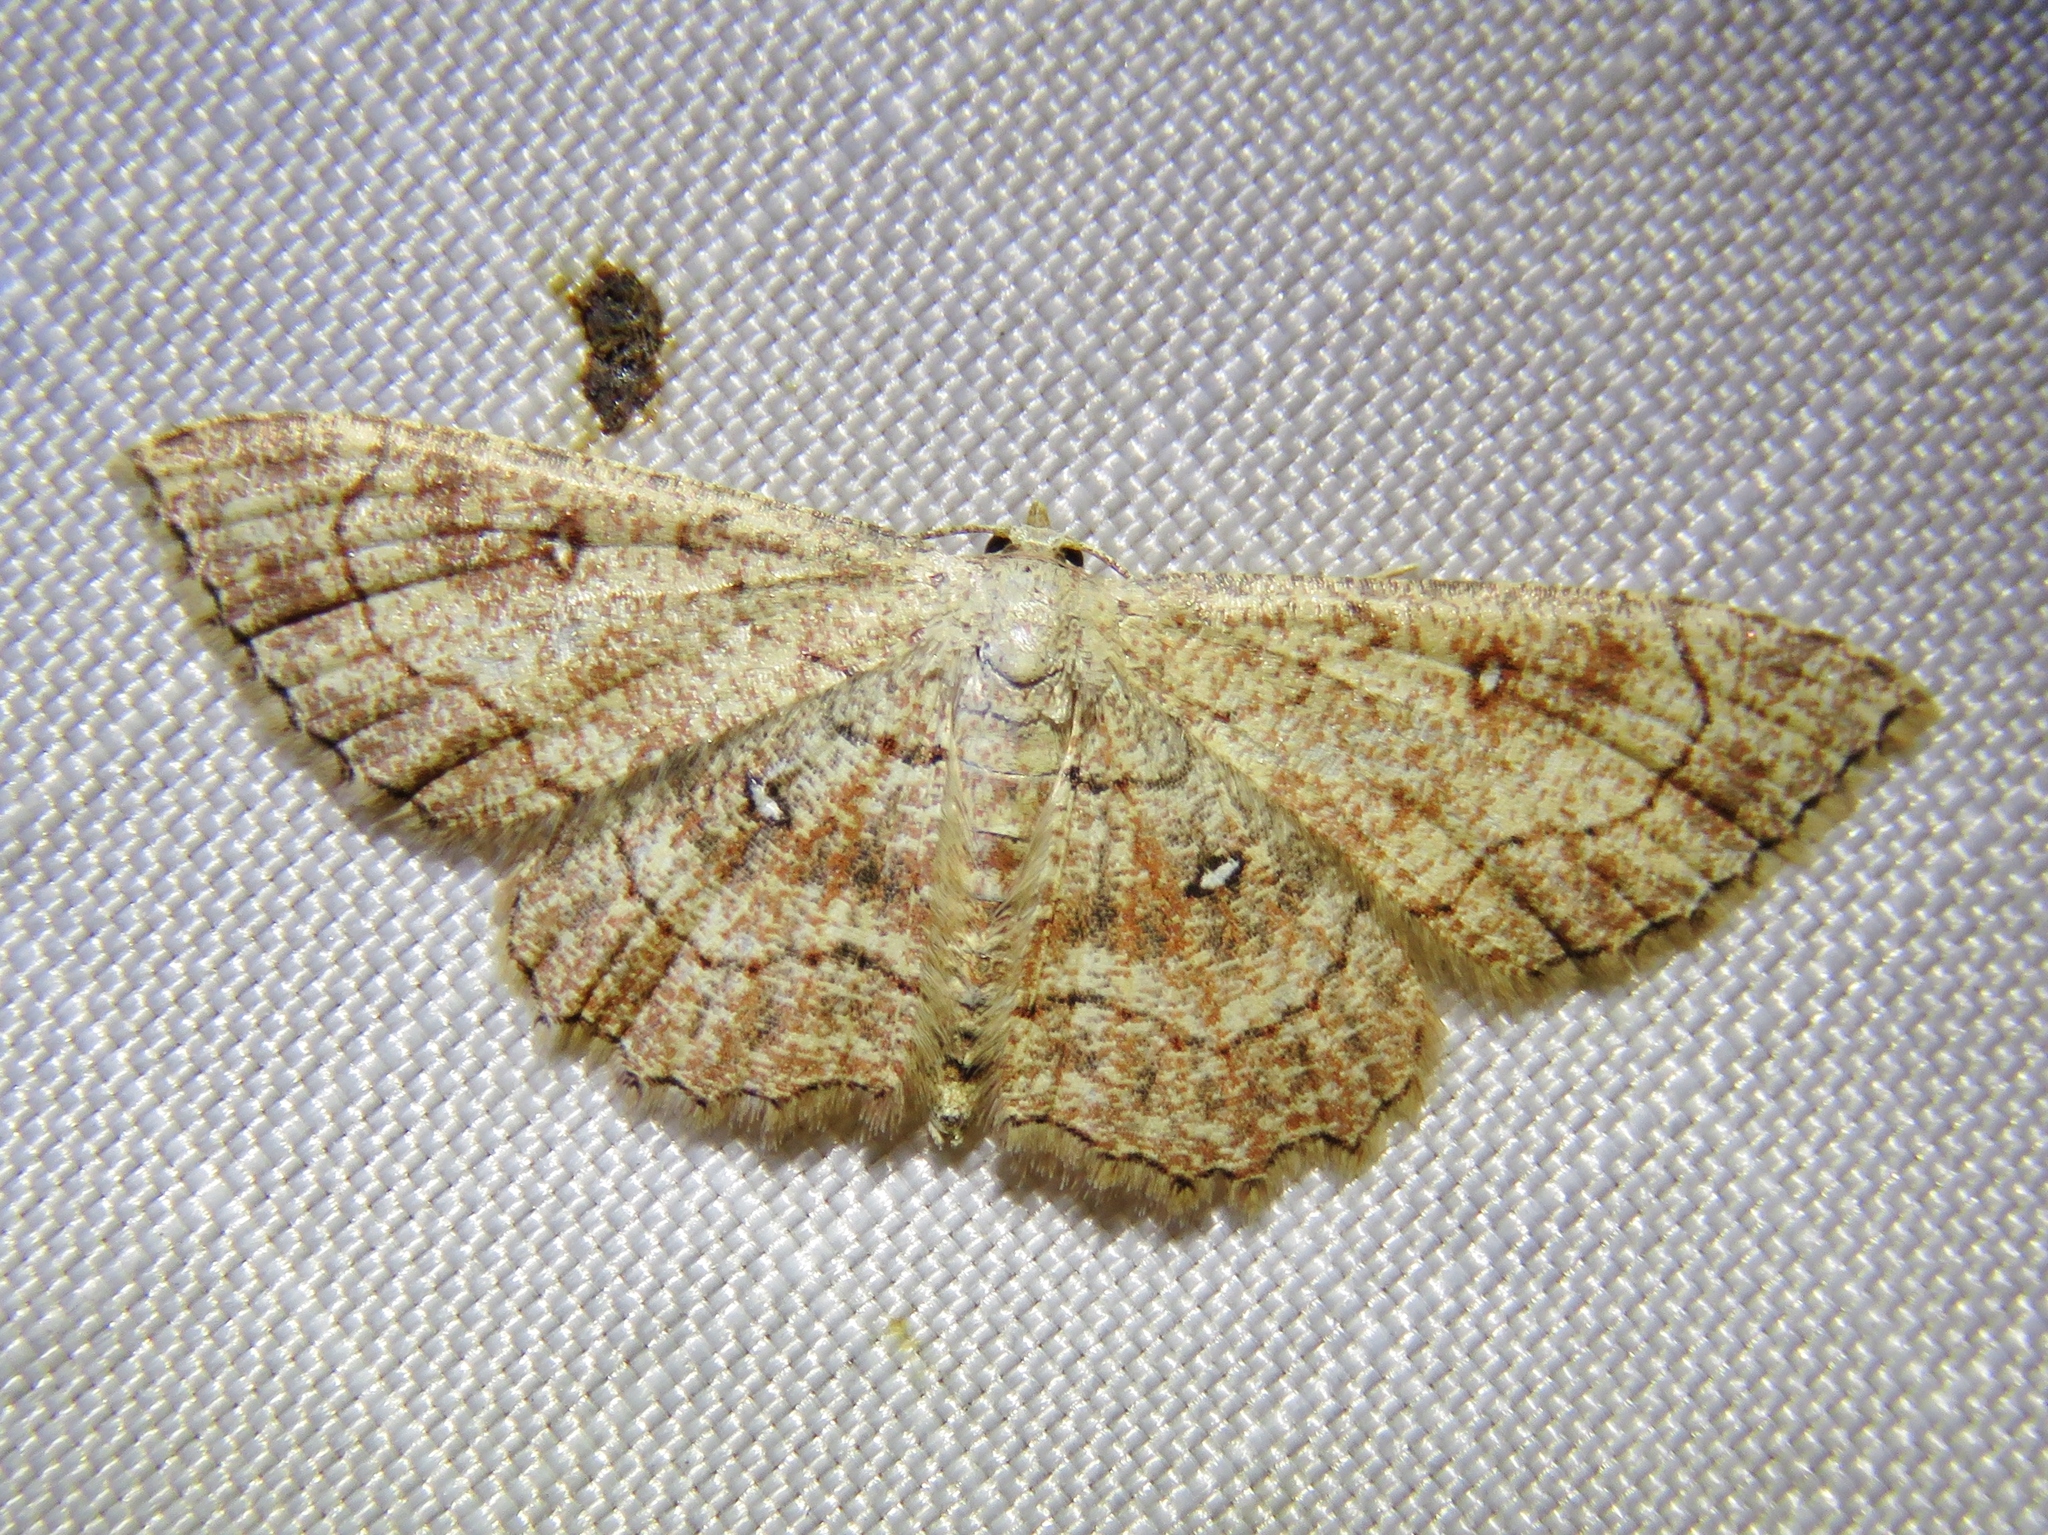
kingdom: Animalia
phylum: Arthropoda
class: Insecta
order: Lepidoptera
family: Geometridae
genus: Cyclophora
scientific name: Cyclophora nanaria
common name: Cankerworm
